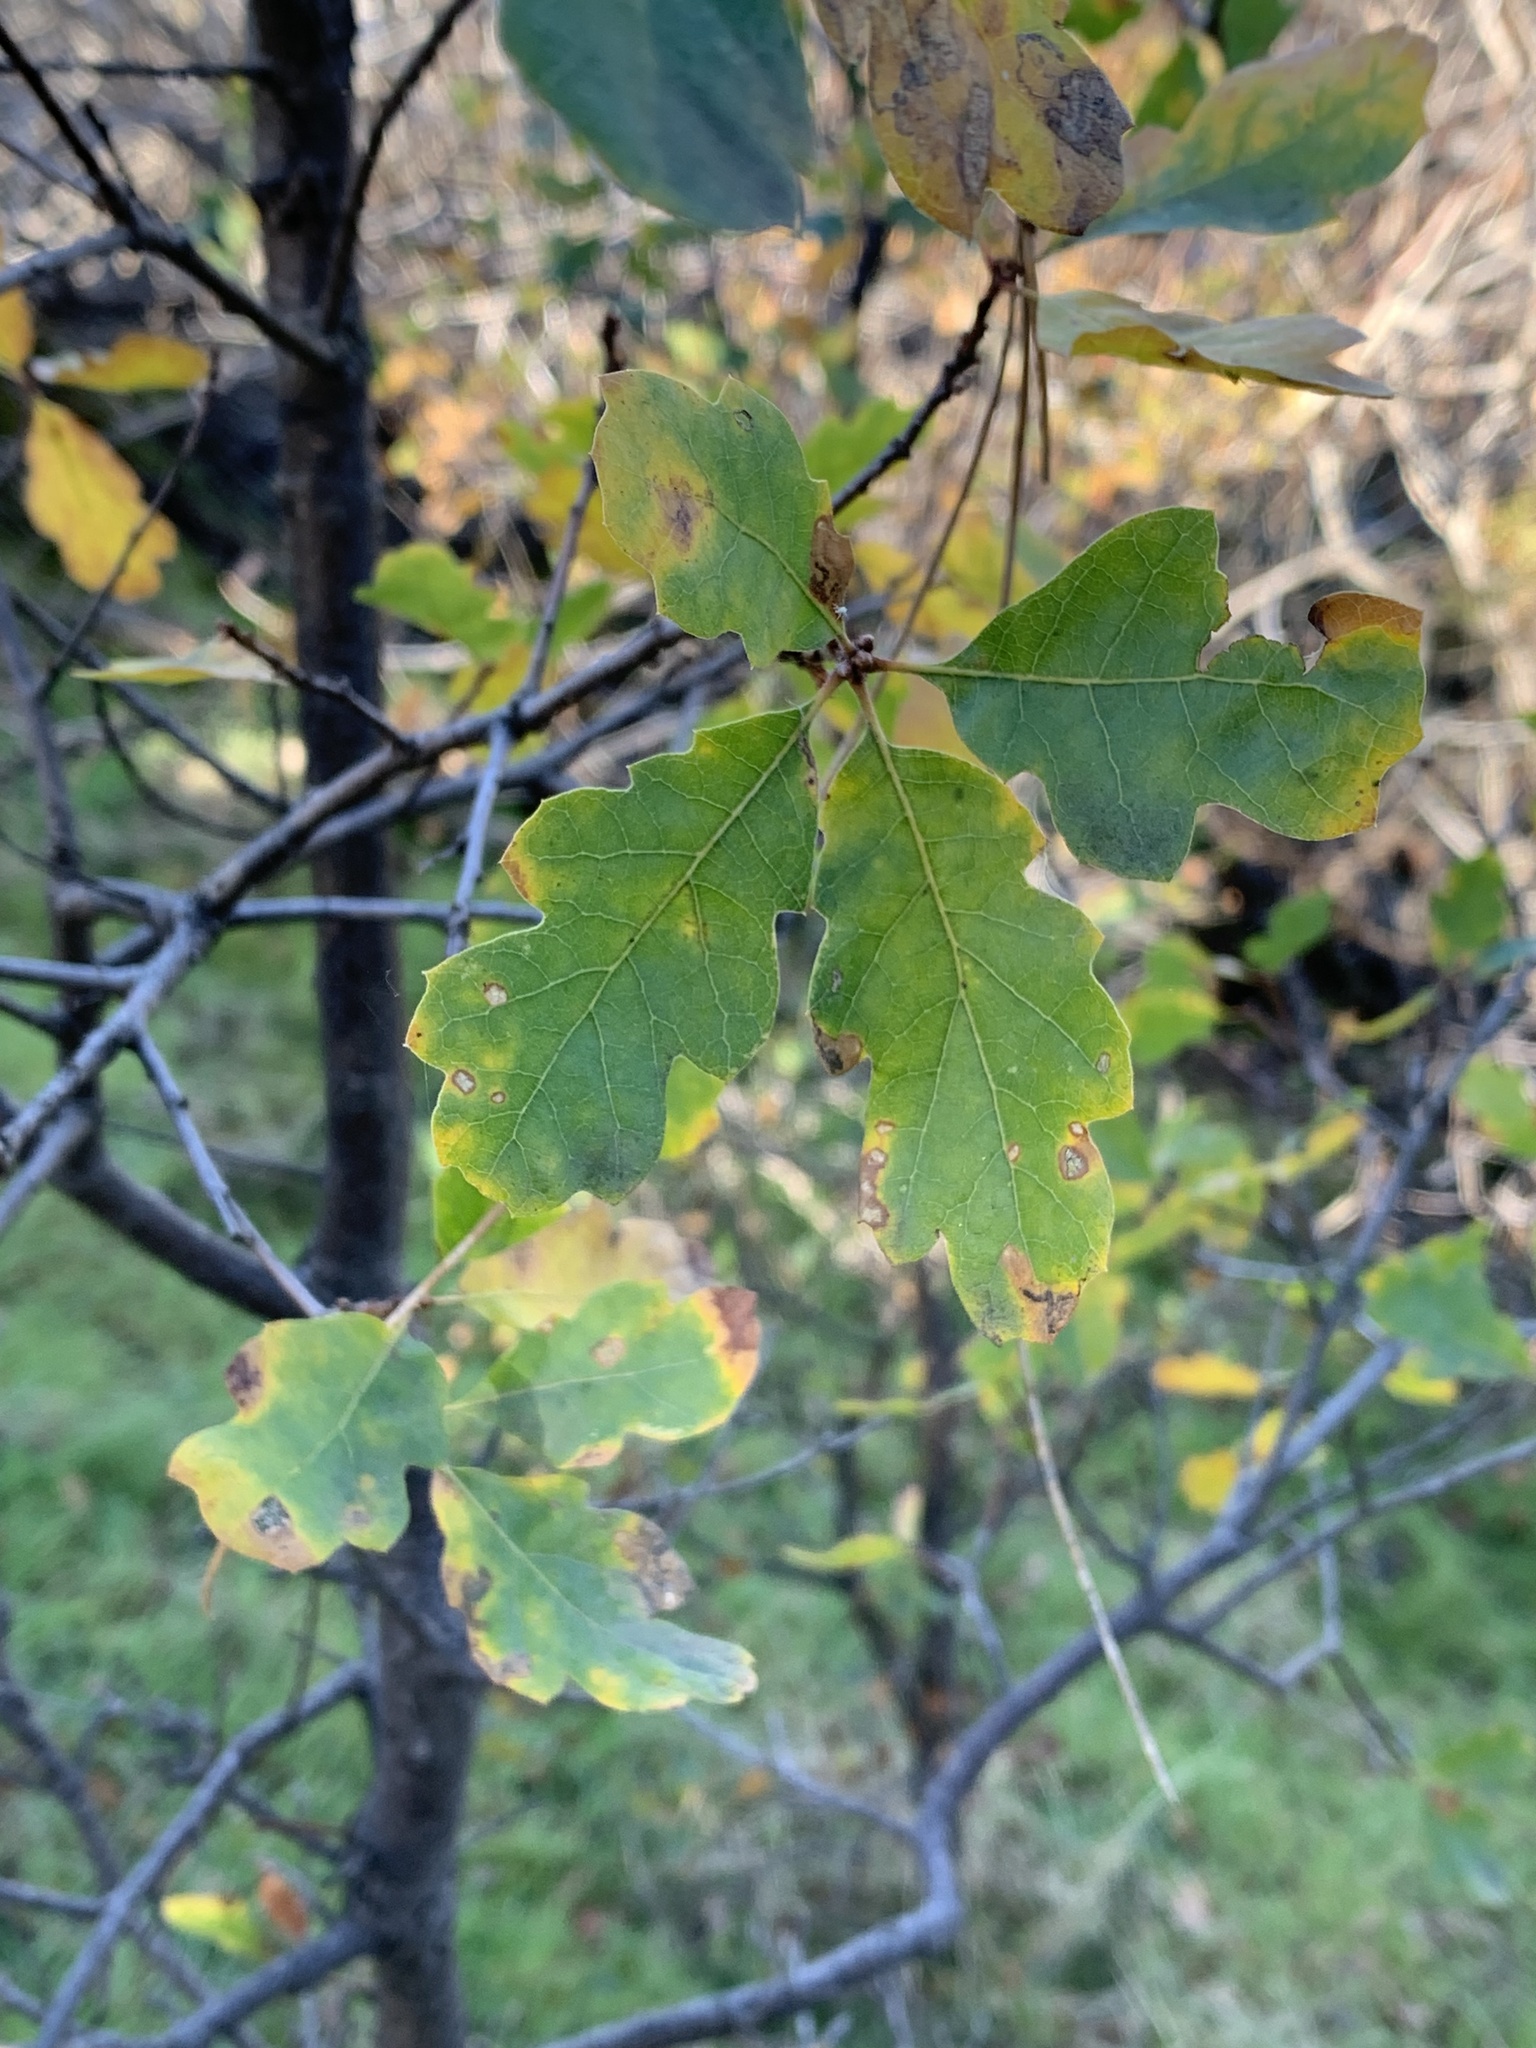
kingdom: Plantae
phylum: Tracheophyta
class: Magnoliopsida
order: Fagales
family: Fagaceae
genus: Quercus
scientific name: Quercus douglasii
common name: Blue oak
